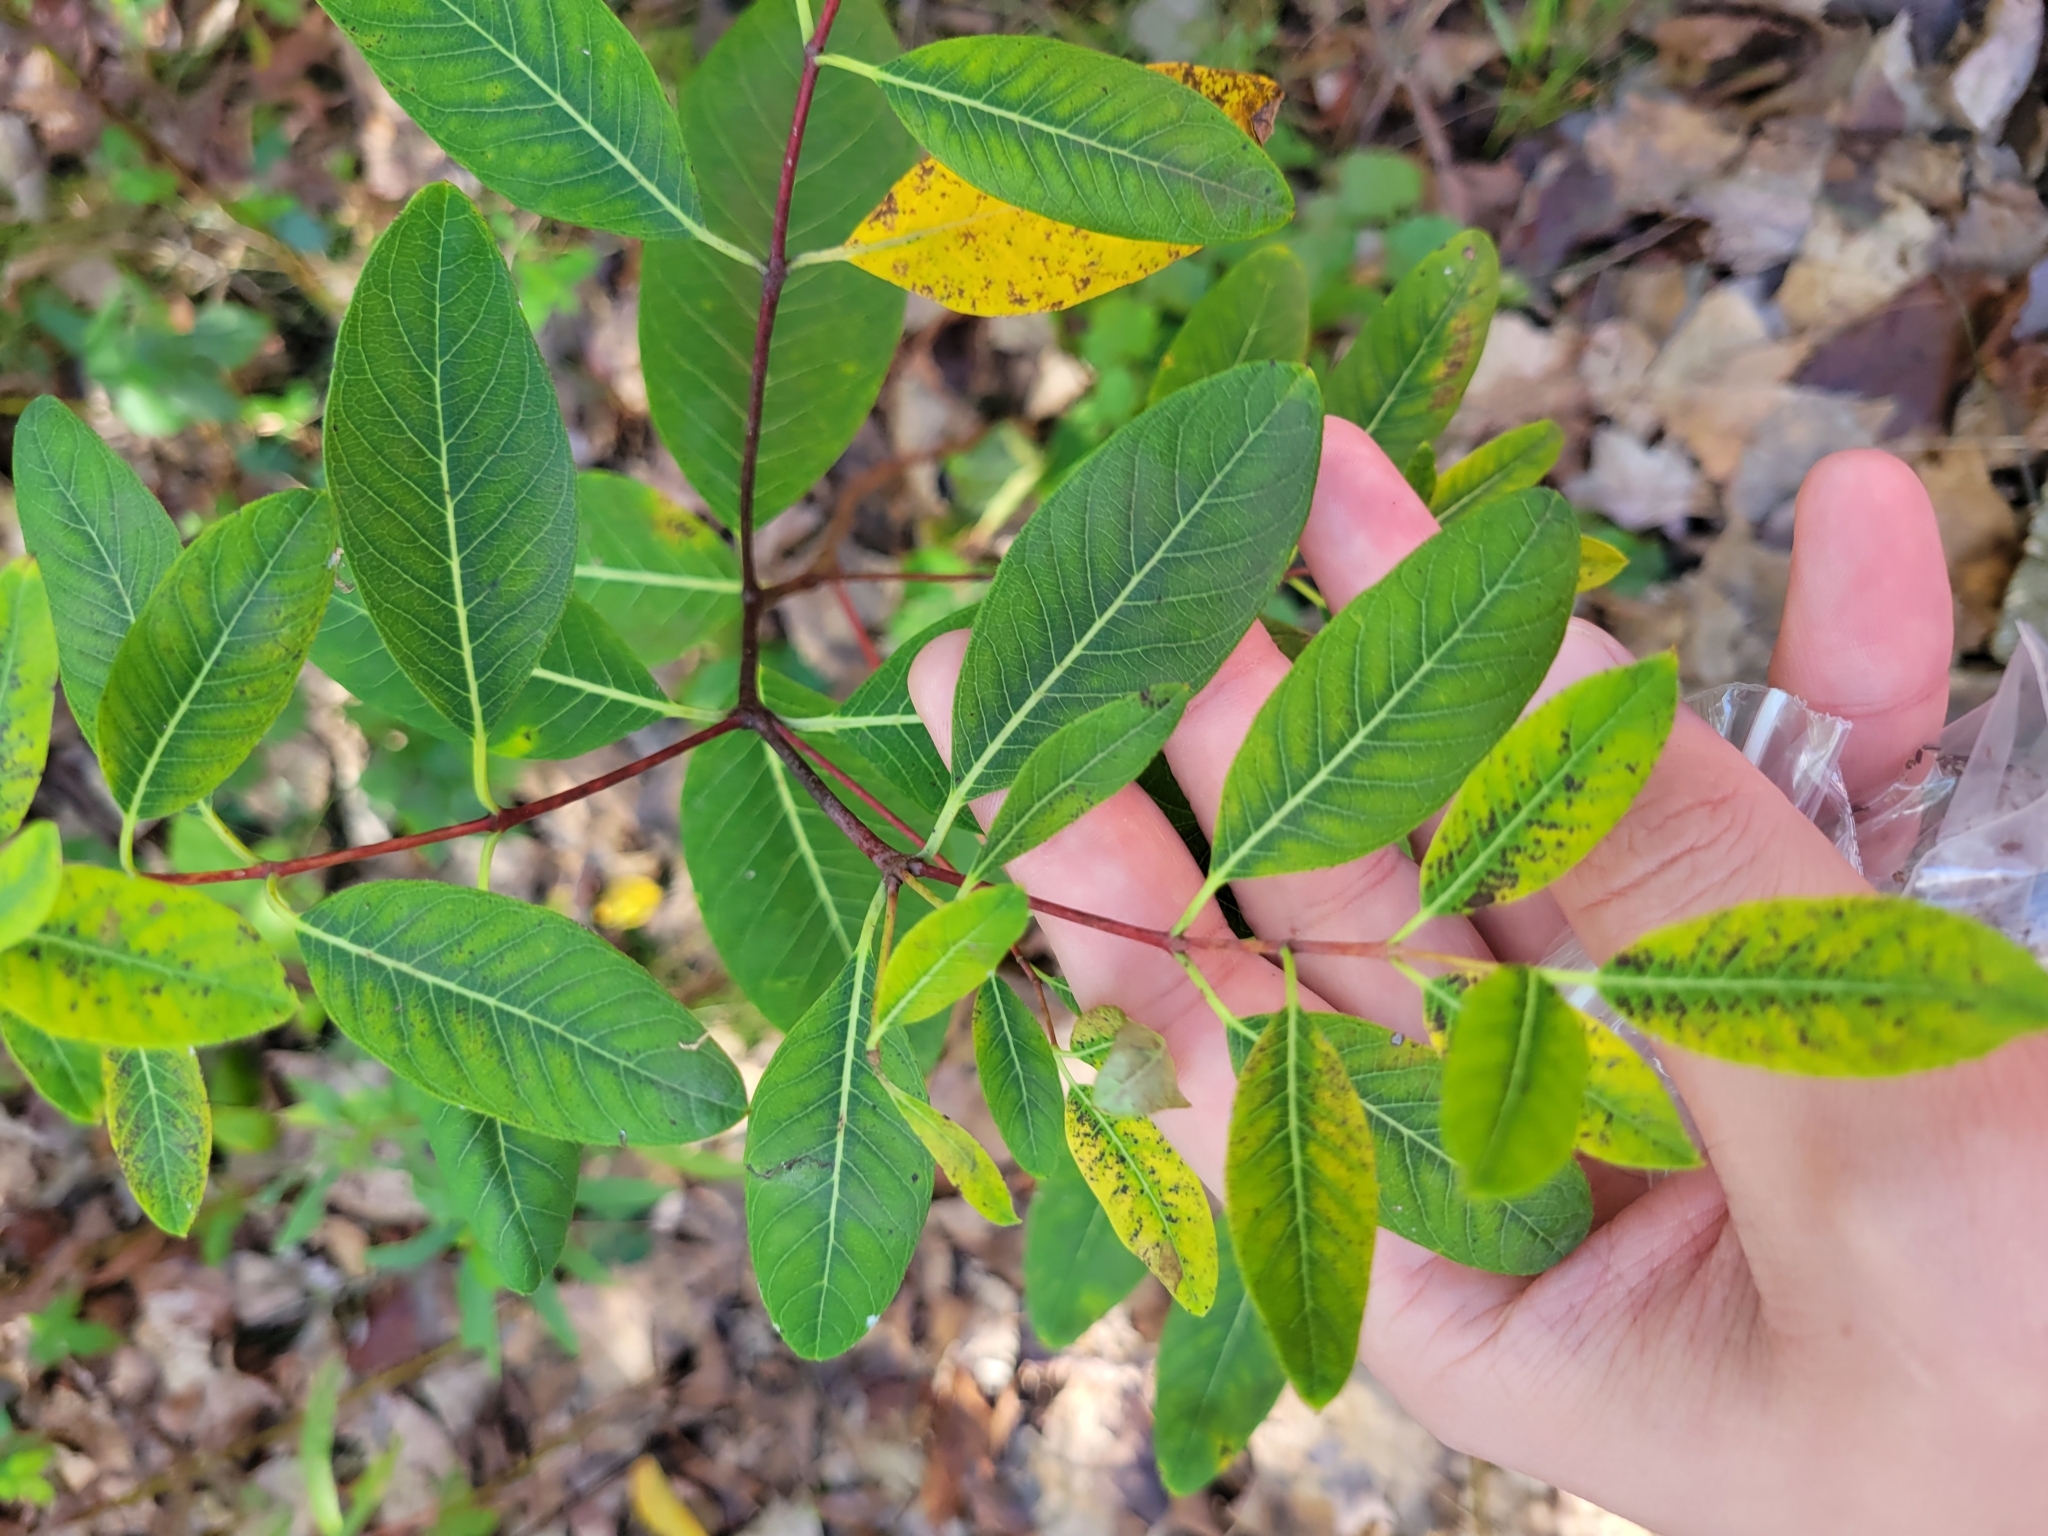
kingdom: Plantae
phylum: Tracheophyta
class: Magnoliopsida
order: Gentianales
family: Apocynaceae
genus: Apocynum
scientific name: Apocynum cannabinum
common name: Hemp dogbane
